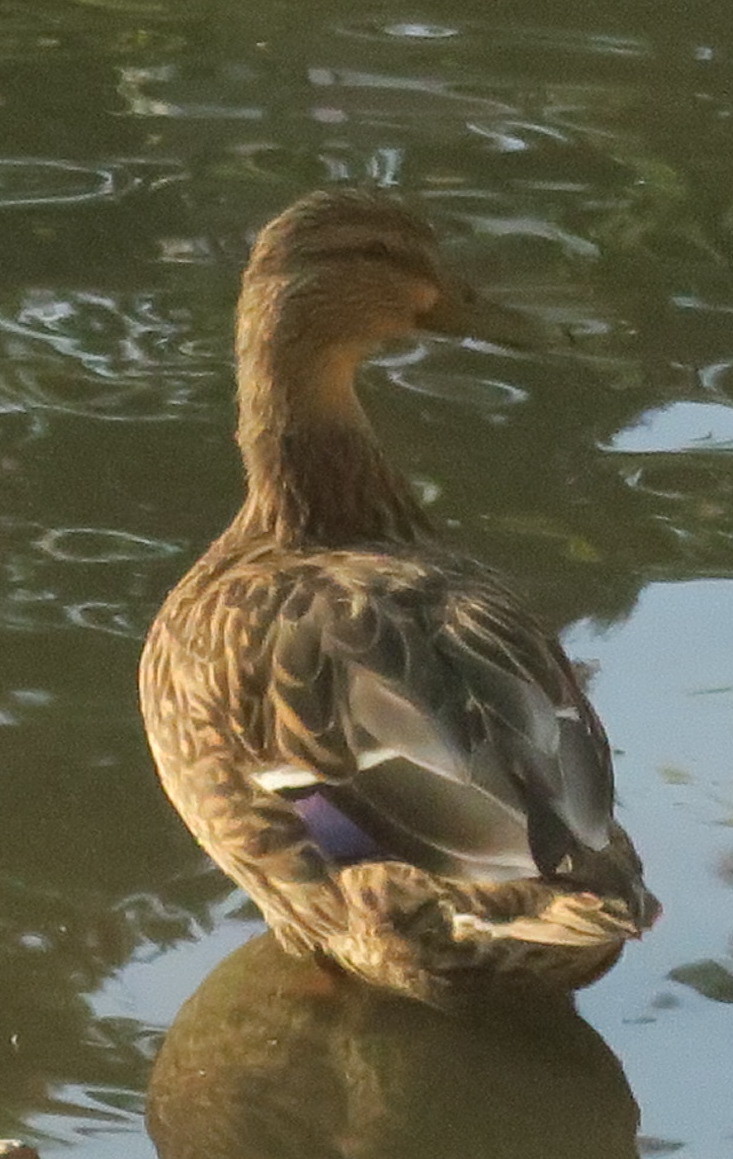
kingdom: Animalia
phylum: Chordata
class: Aves
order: Anseriformes
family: Anatidae
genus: Anas
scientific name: Anas platyrhynchos
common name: Mallard
